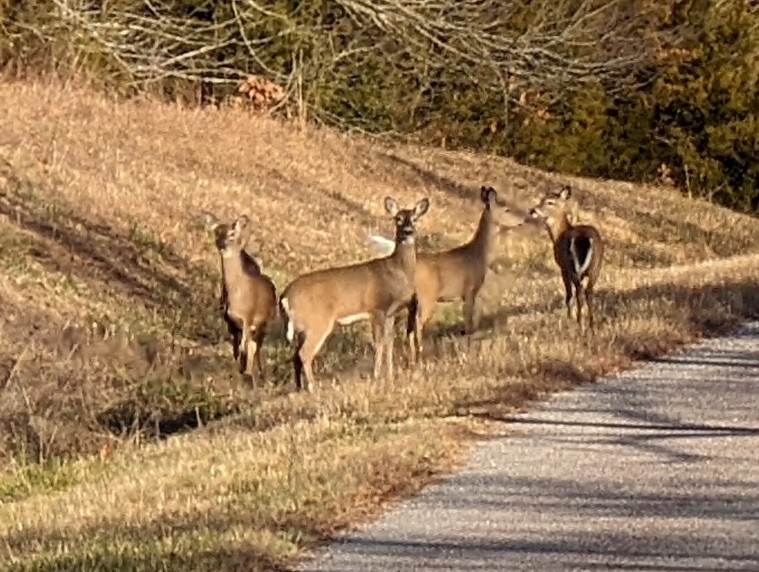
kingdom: Animalia
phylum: Chordata
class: Mammalia
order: Artiodactyla
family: Cervidae
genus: Odocoileus
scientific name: Odocoileus virginianus
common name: White-tailed deer
